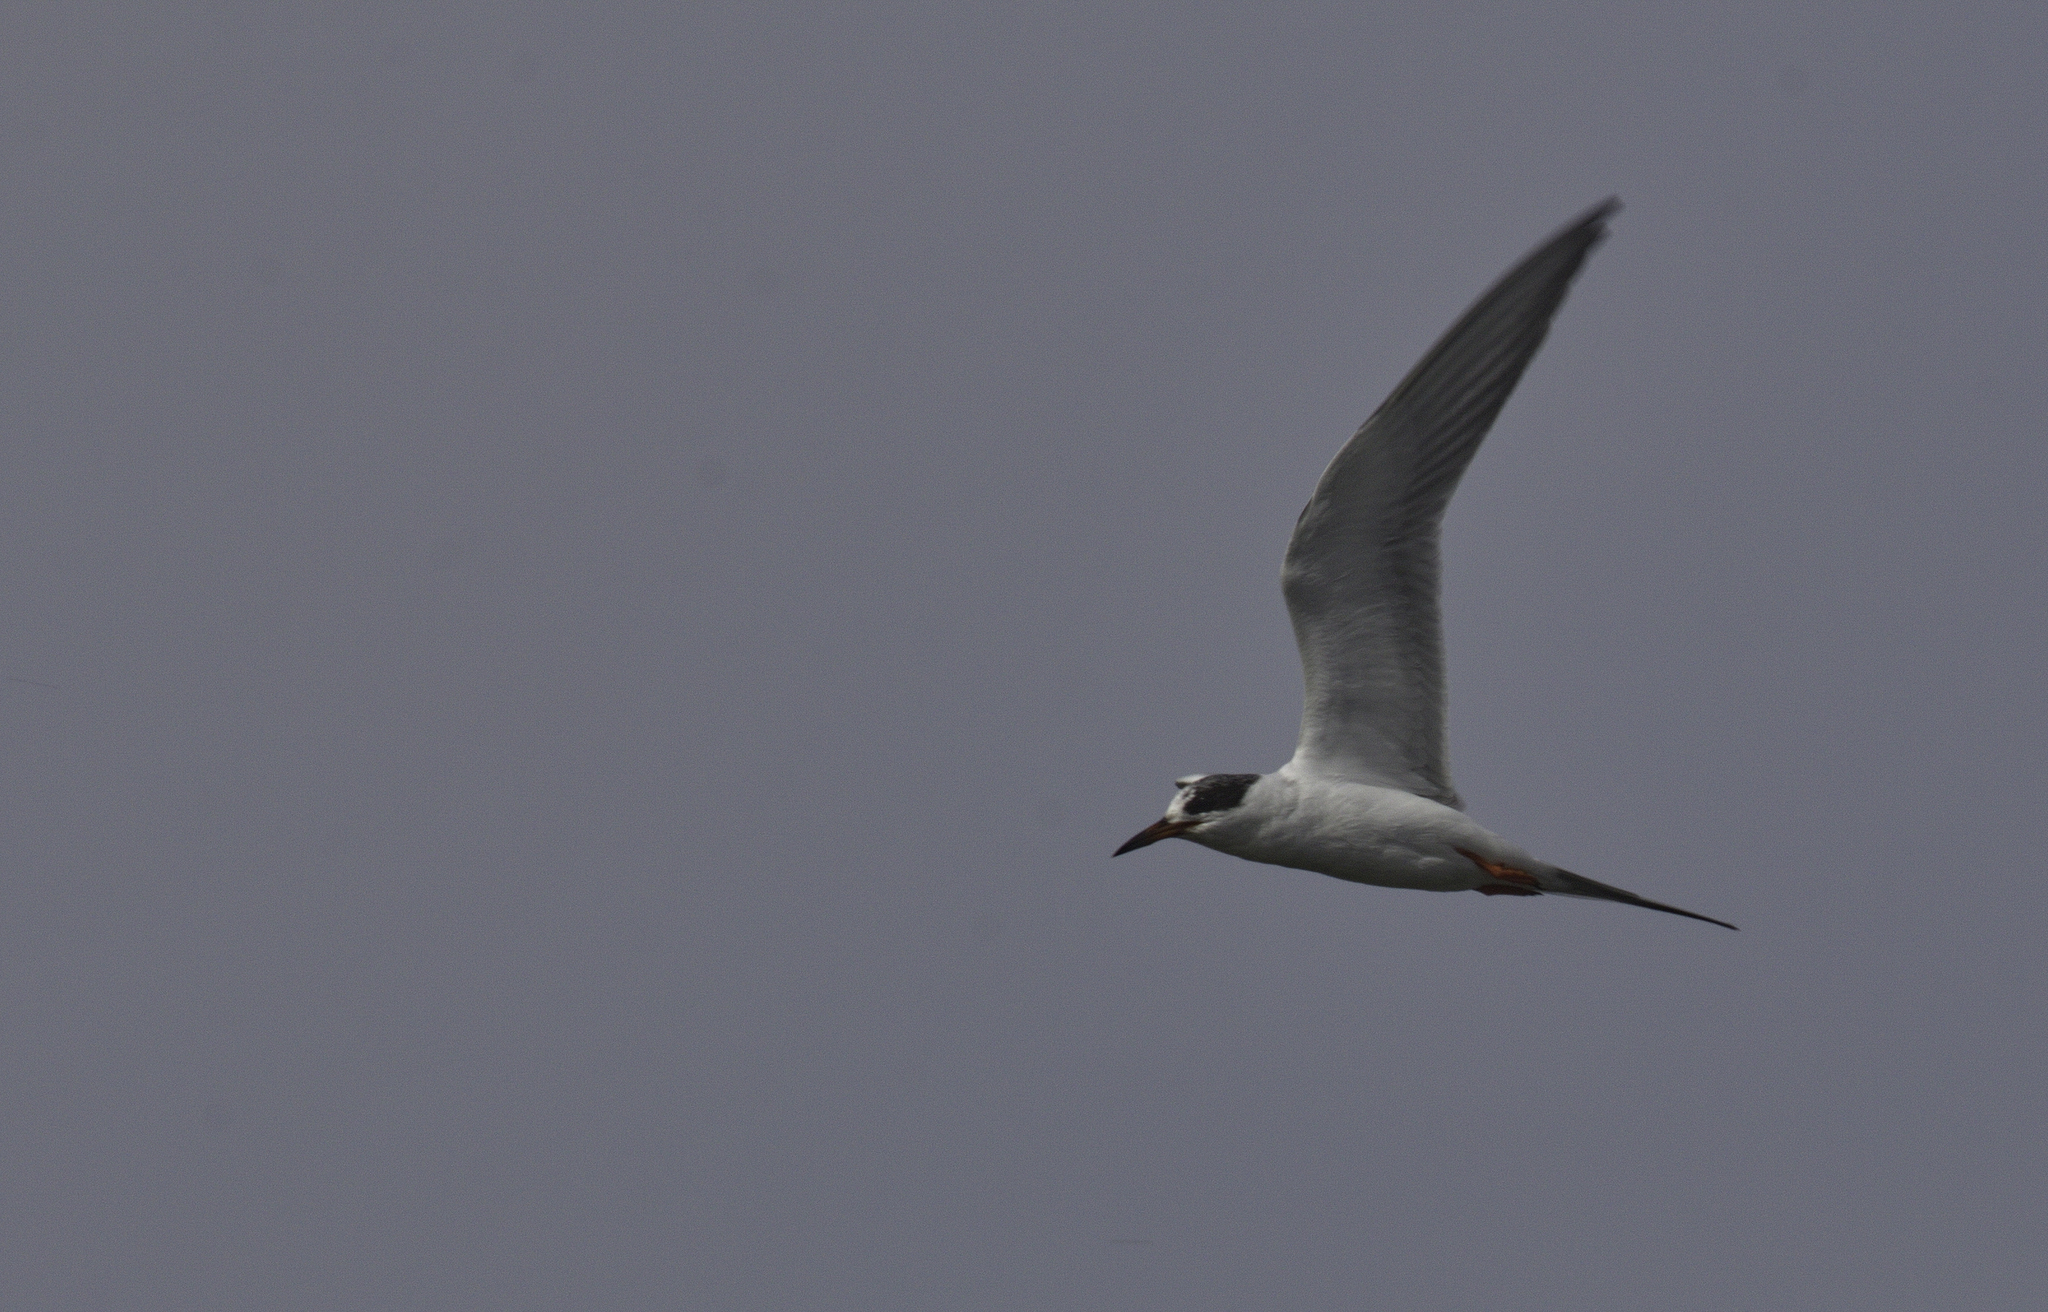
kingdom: Animalia
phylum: Chordata
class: Aves
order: Charadriiformes
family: Laridae
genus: Sterna
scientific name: Sterna forsteri
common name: Forster's tern
